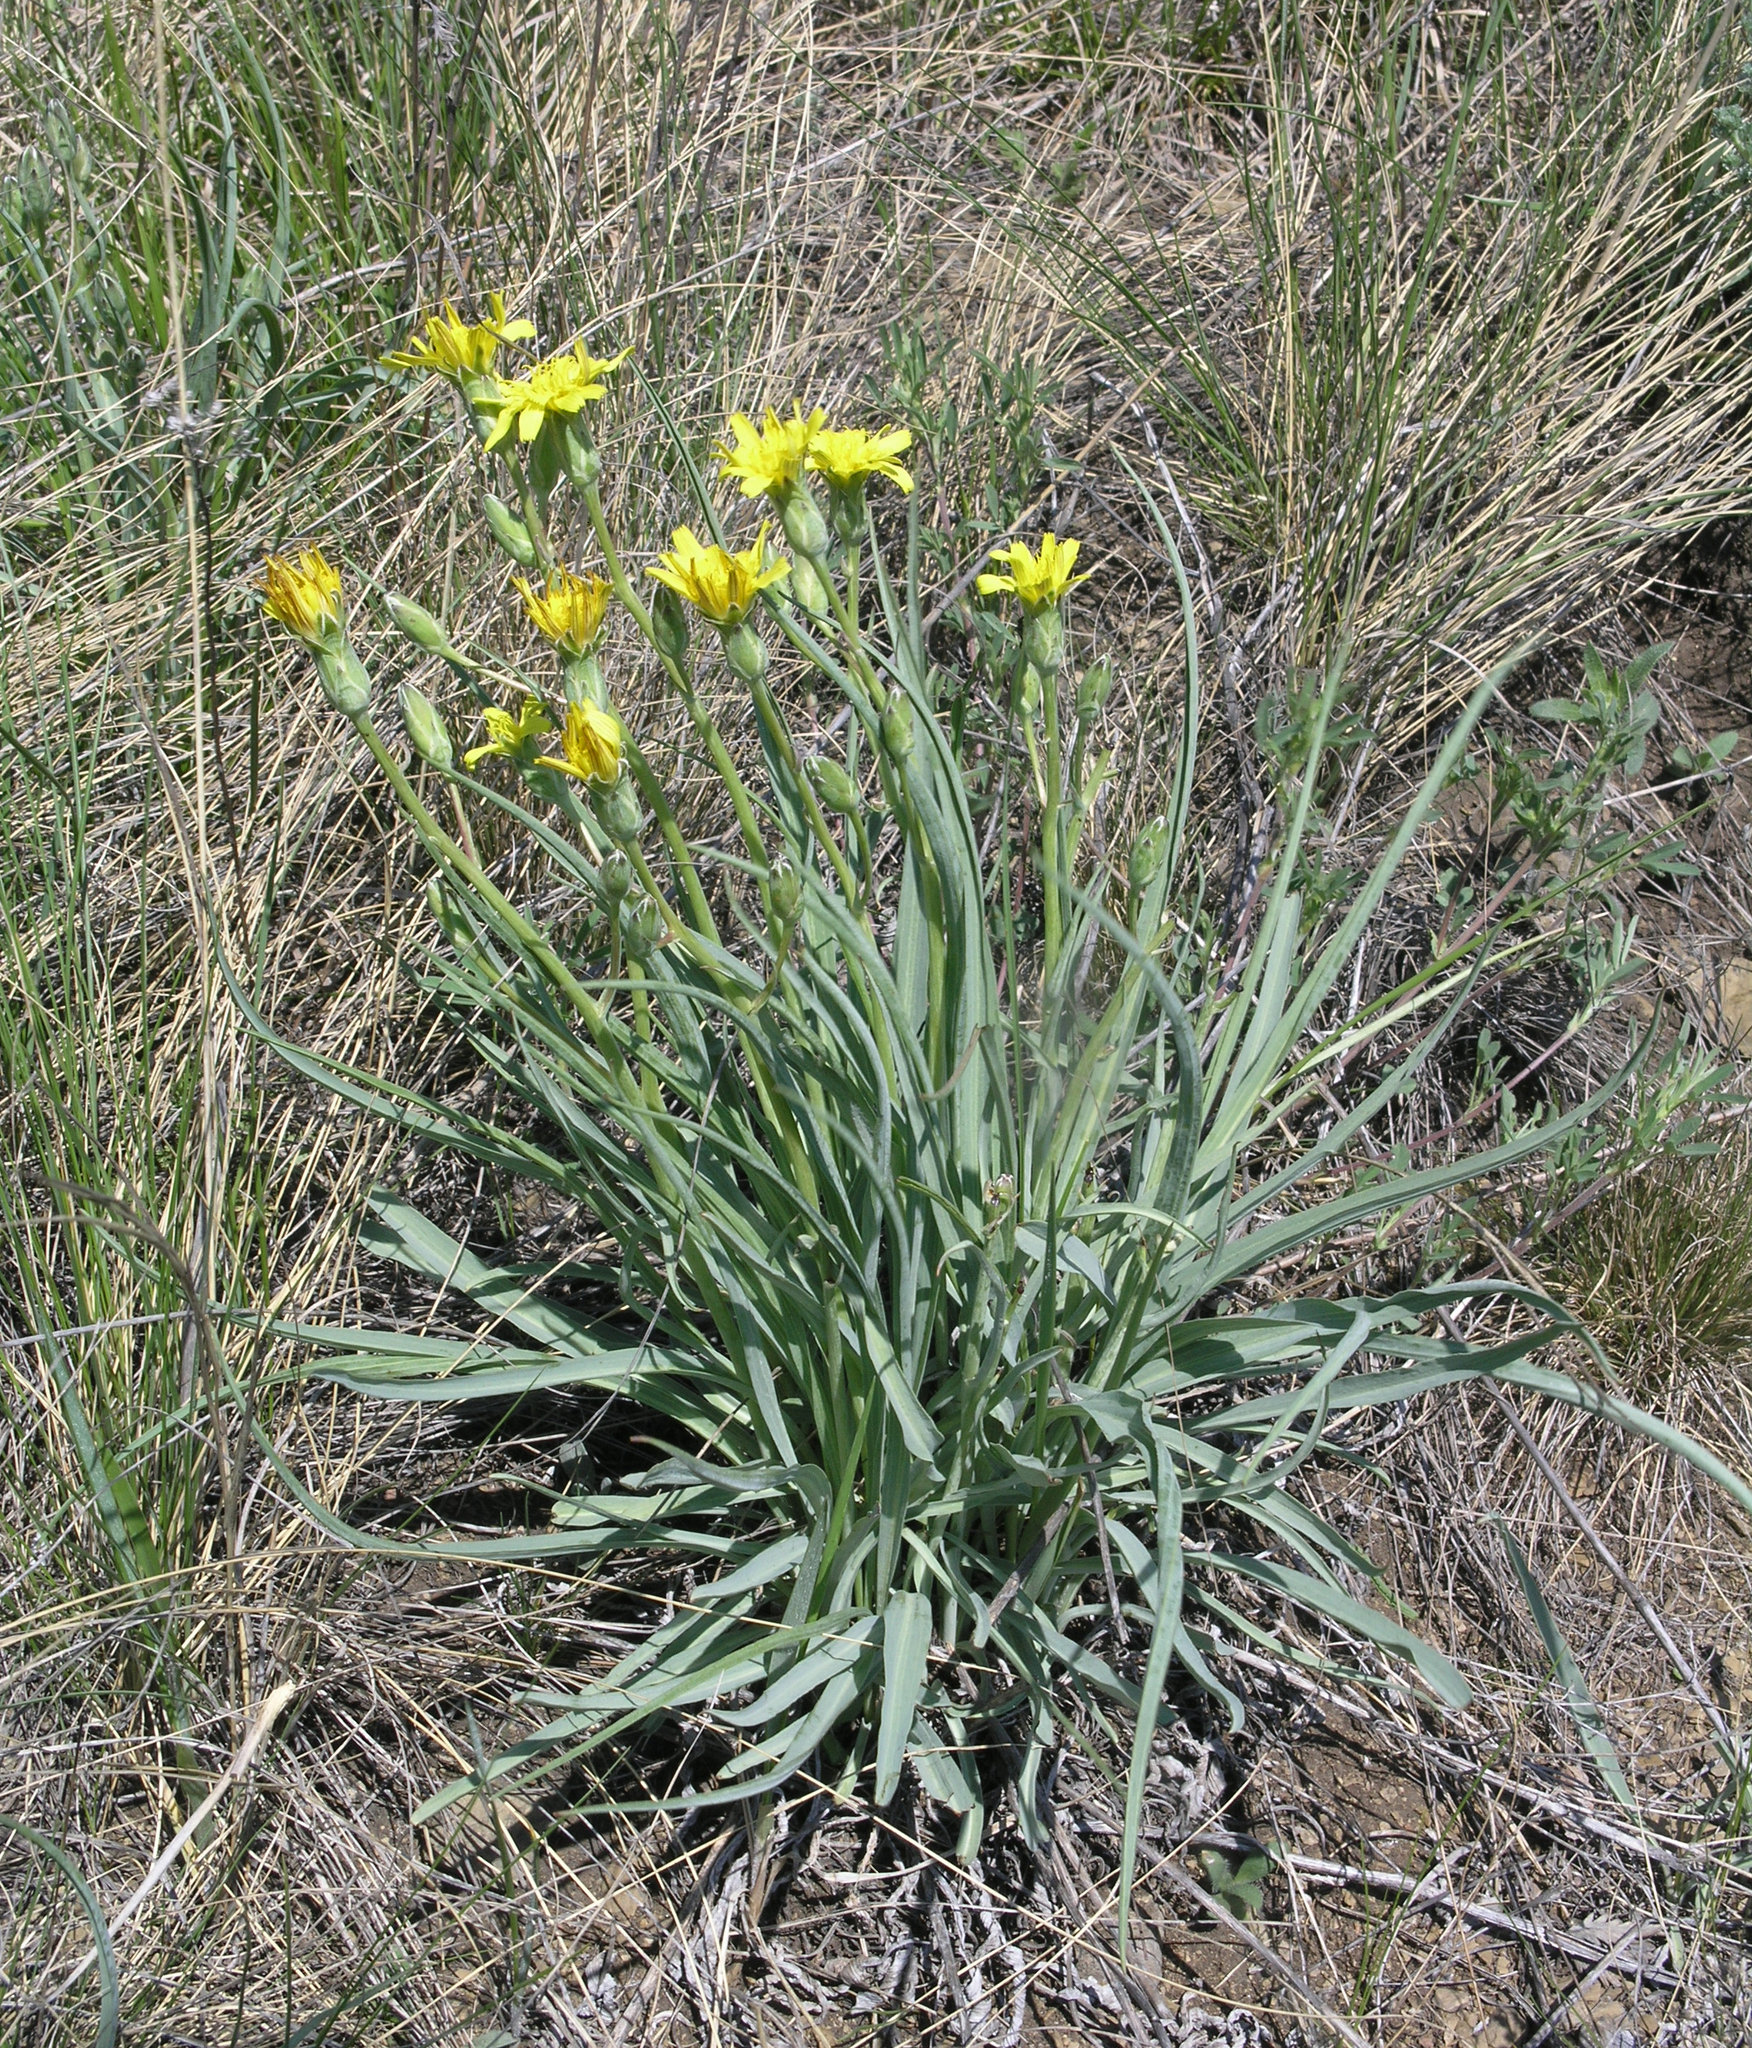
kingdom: Plantae
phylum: Tracheophyta
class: Magnoliopsida
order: Asterales
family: Asteraceae
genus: Takhtajaniantha
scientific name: Takhtajaniantha austriaca
